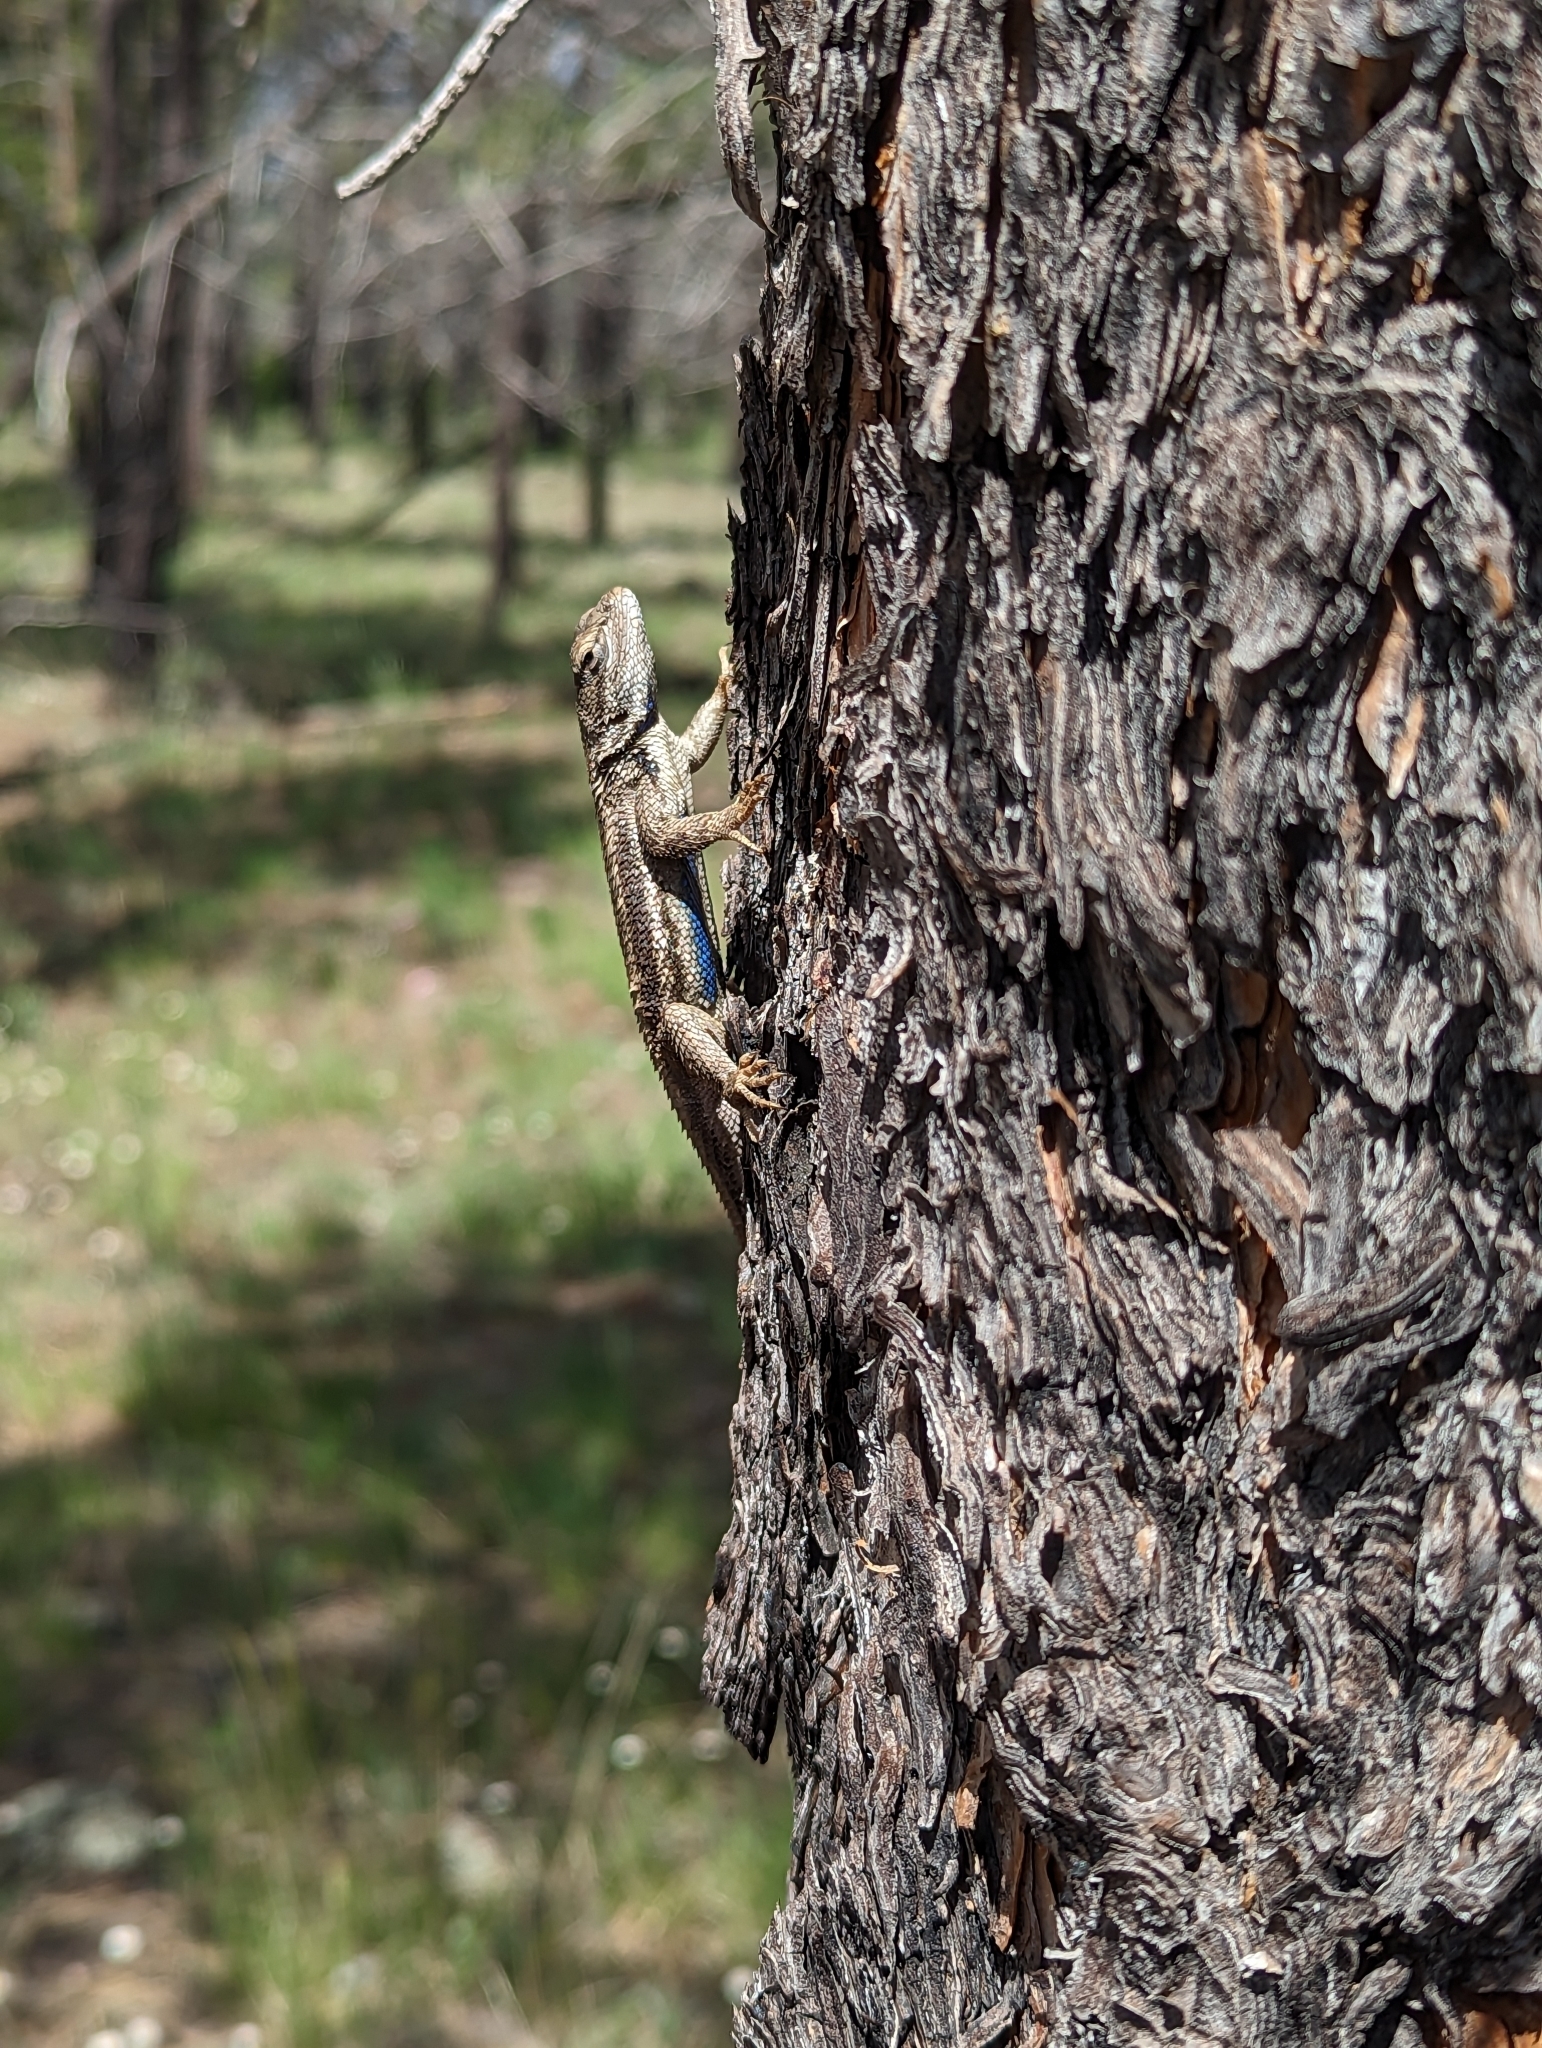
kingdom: Animalia
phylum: Chordata
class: Squamata
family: Phrynosomatidae
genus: Sceloporus
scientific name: Sceloporus tristichus
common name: Plateau fence lizard
